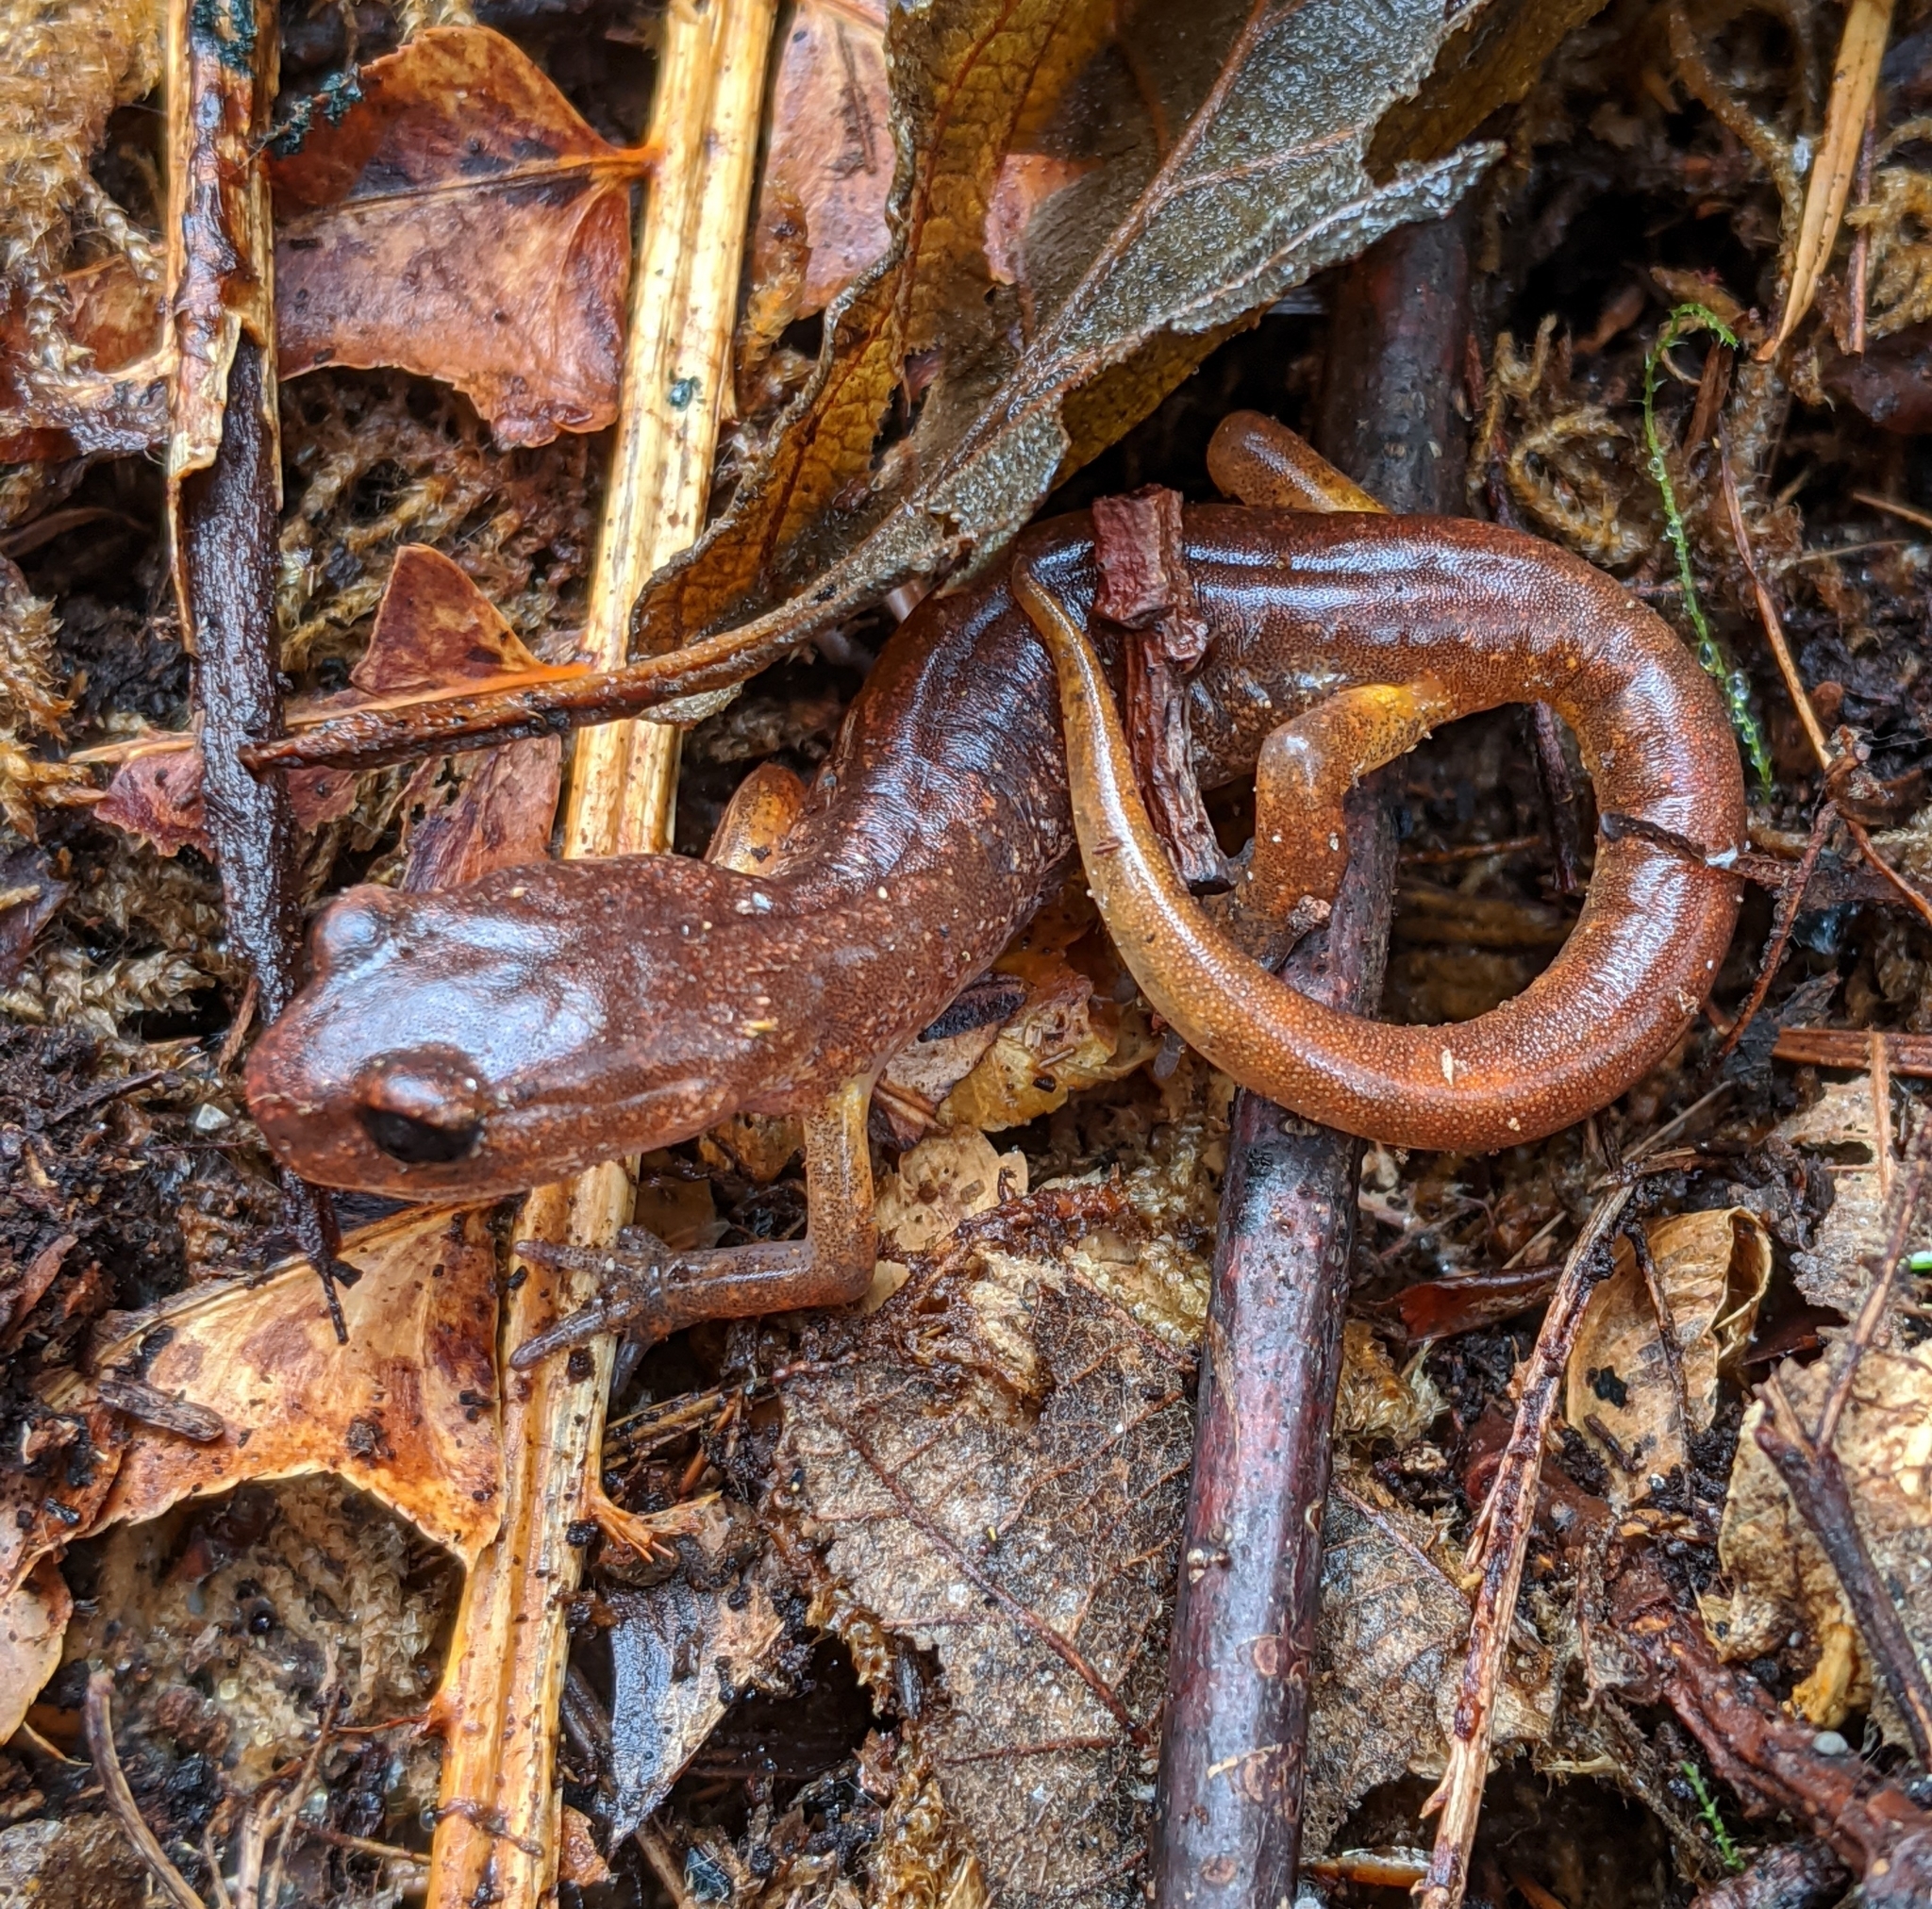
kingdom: Animalia
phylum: Chordata
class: Amphibia
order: Caudata
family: Plethodontidae
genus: Ensatina
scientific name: Ensatina eschscholtzii
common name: Ensatina
